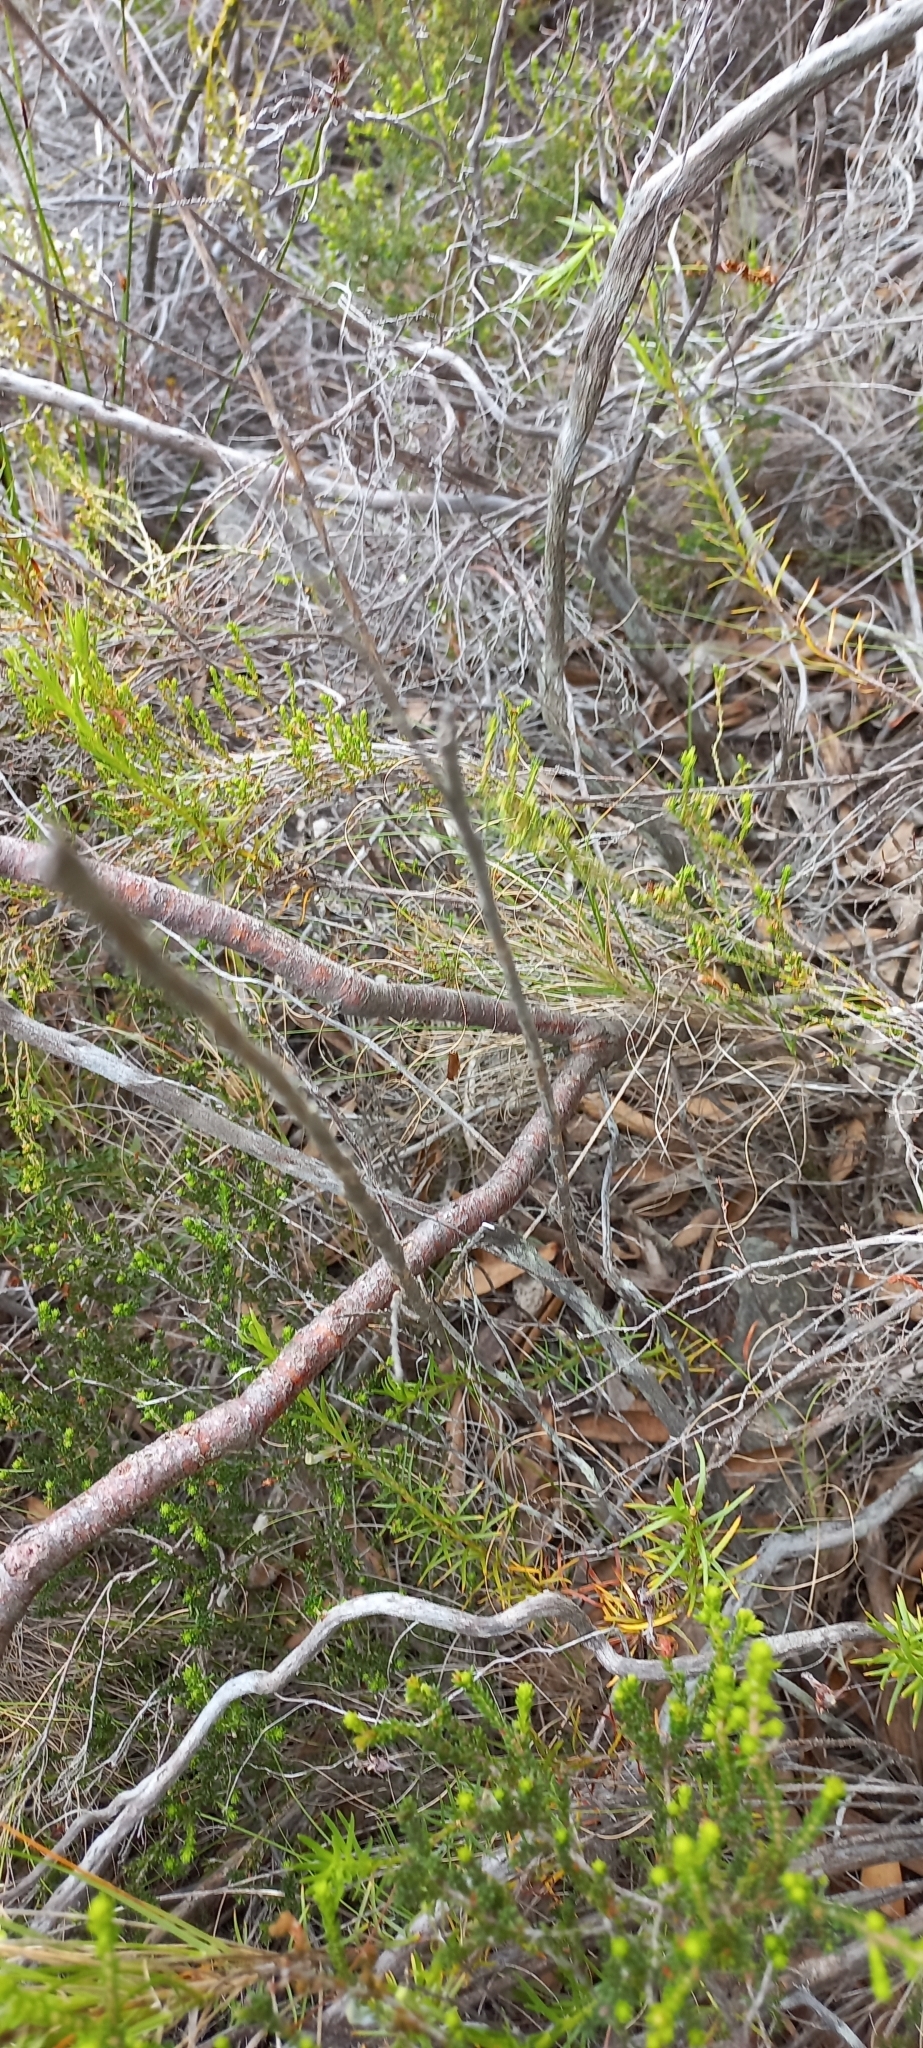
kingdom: Plantae
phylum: Tracheophyta
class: Magnoliopsida
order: Proteales
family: Proteaceae
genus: Serruria
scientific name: Serruria ascendens
